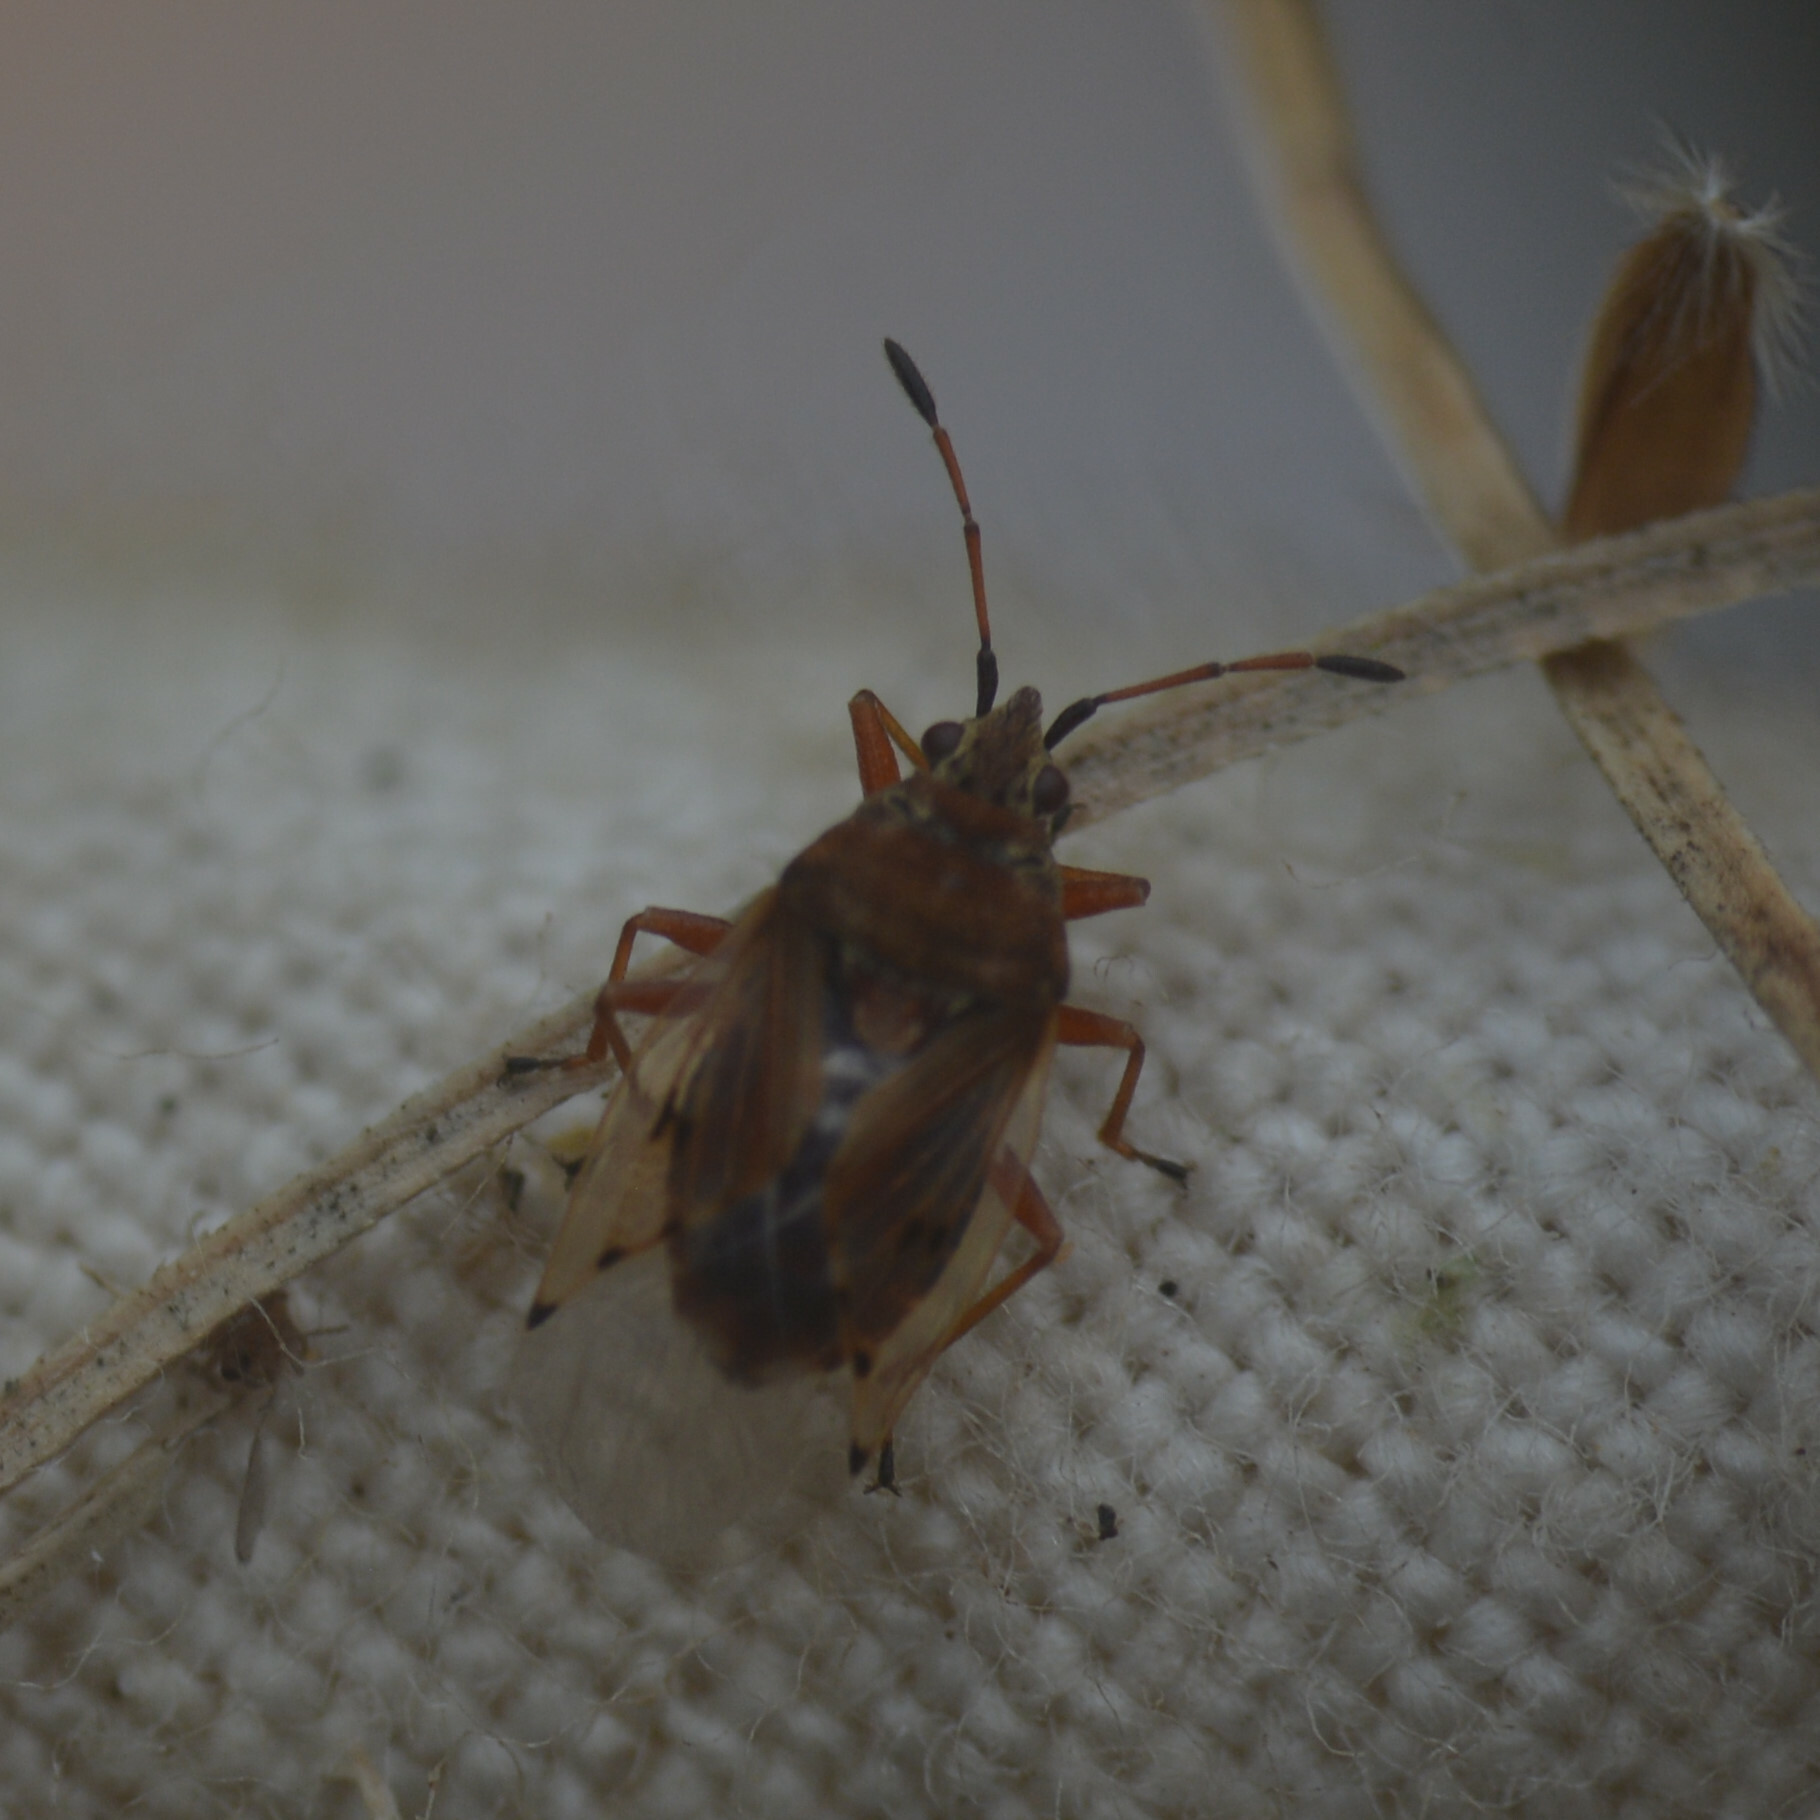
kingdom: Animalia
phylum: Arthropoda
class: Insecta
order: Hemiptera
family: Lygaeidae
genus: Kleidocerys
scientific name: Kleidocerys resedae
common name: Birch catkin bug
